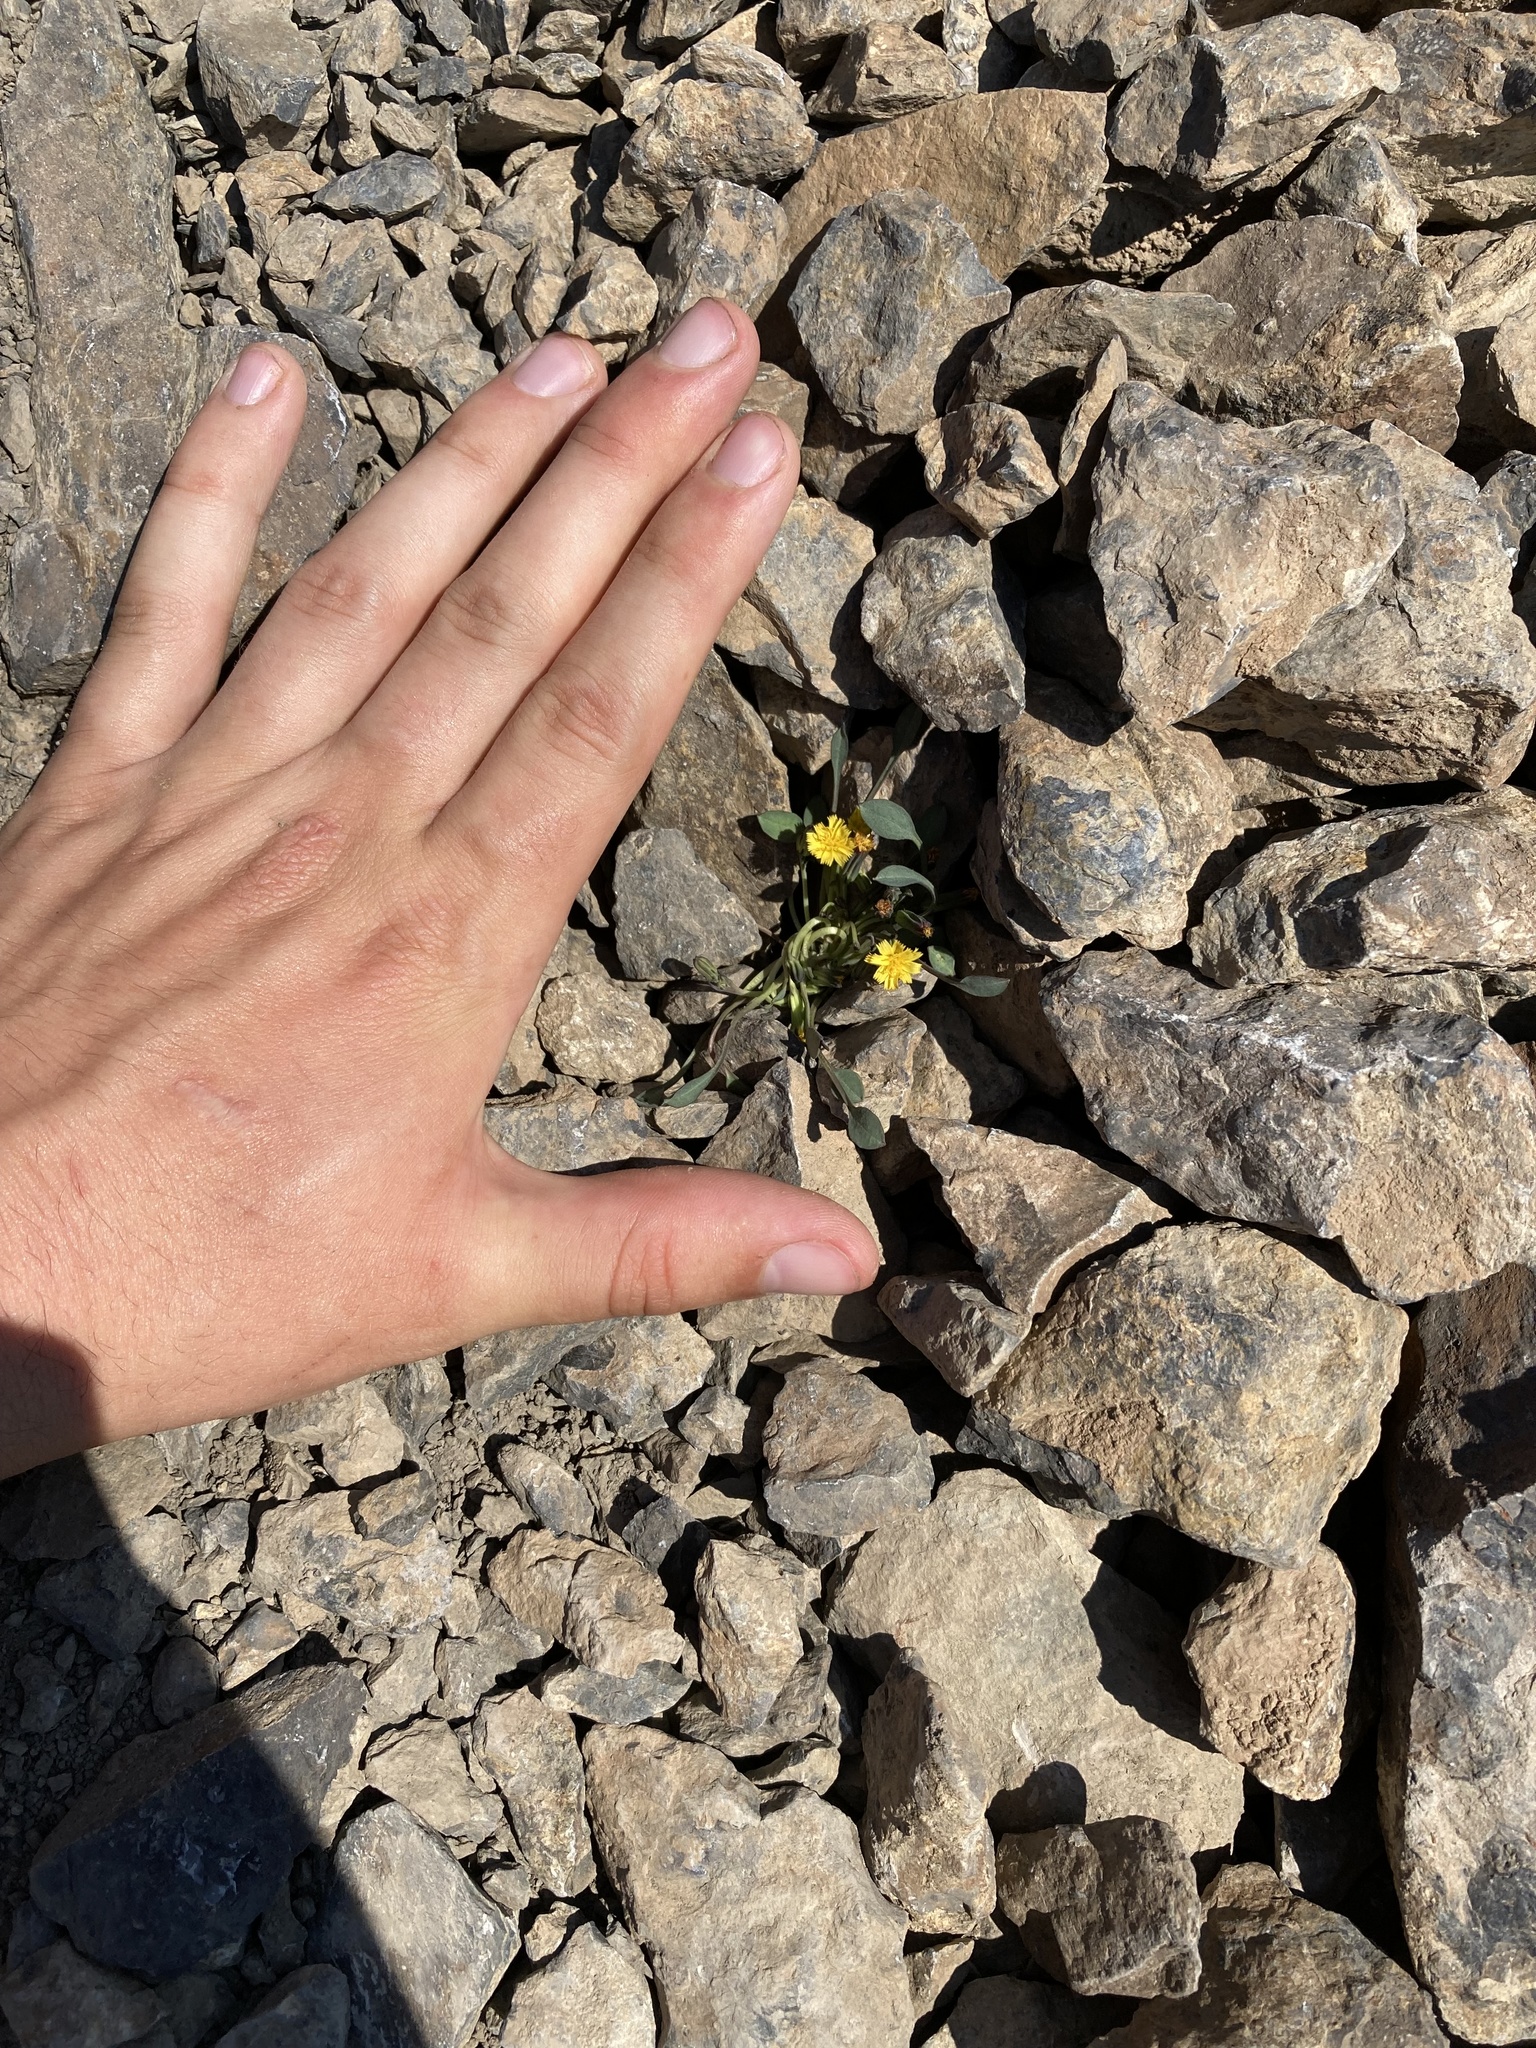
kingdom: Plantae
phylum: Tracheophyta
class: Magnoliopsida
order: Asterales
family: Asteraceae
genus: Askellia
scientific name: Askellia pygmaea
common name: Dwarf alpine hawksbeard
